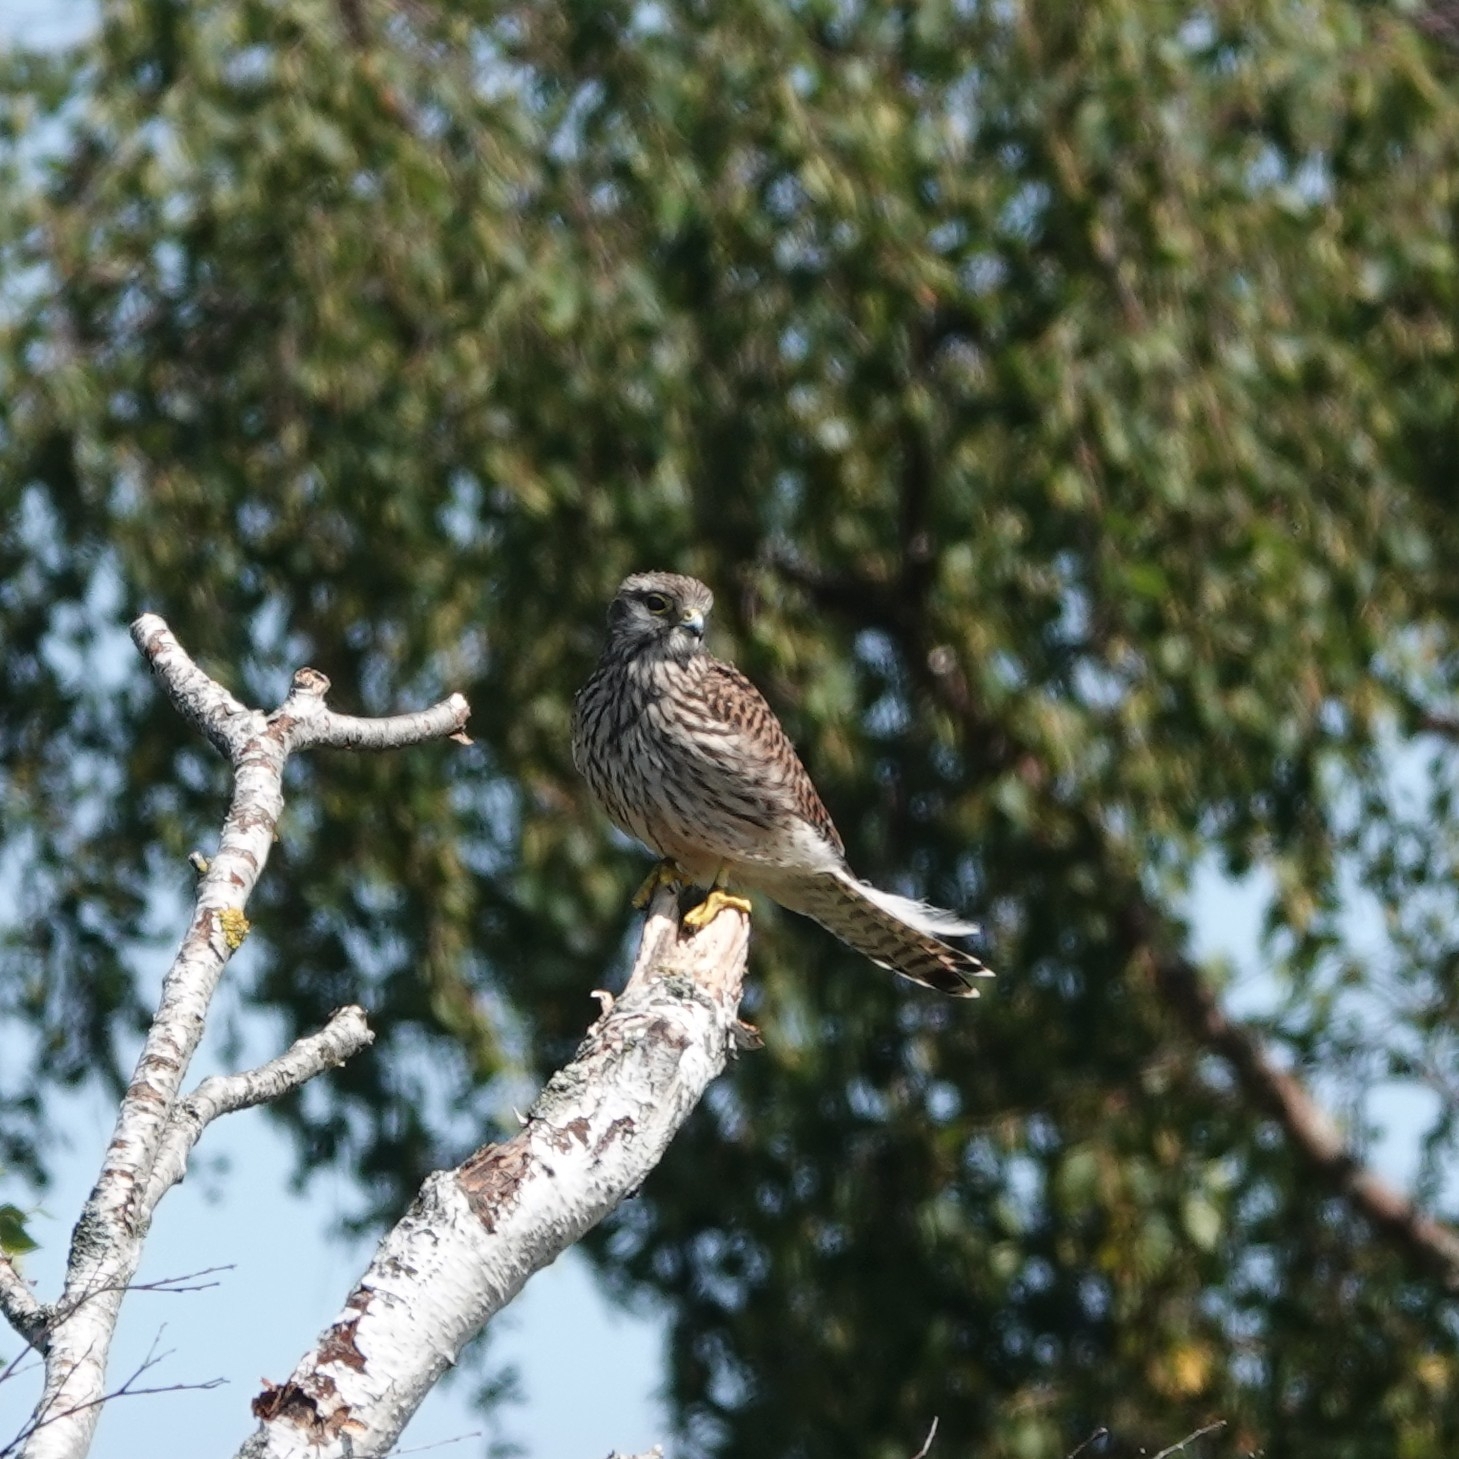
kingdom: Animalia
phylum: Chordata
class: Aves
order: Falconiformes
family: Falconidae
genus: Falco
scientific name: Falco tinnunculus
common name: Common kestrel
